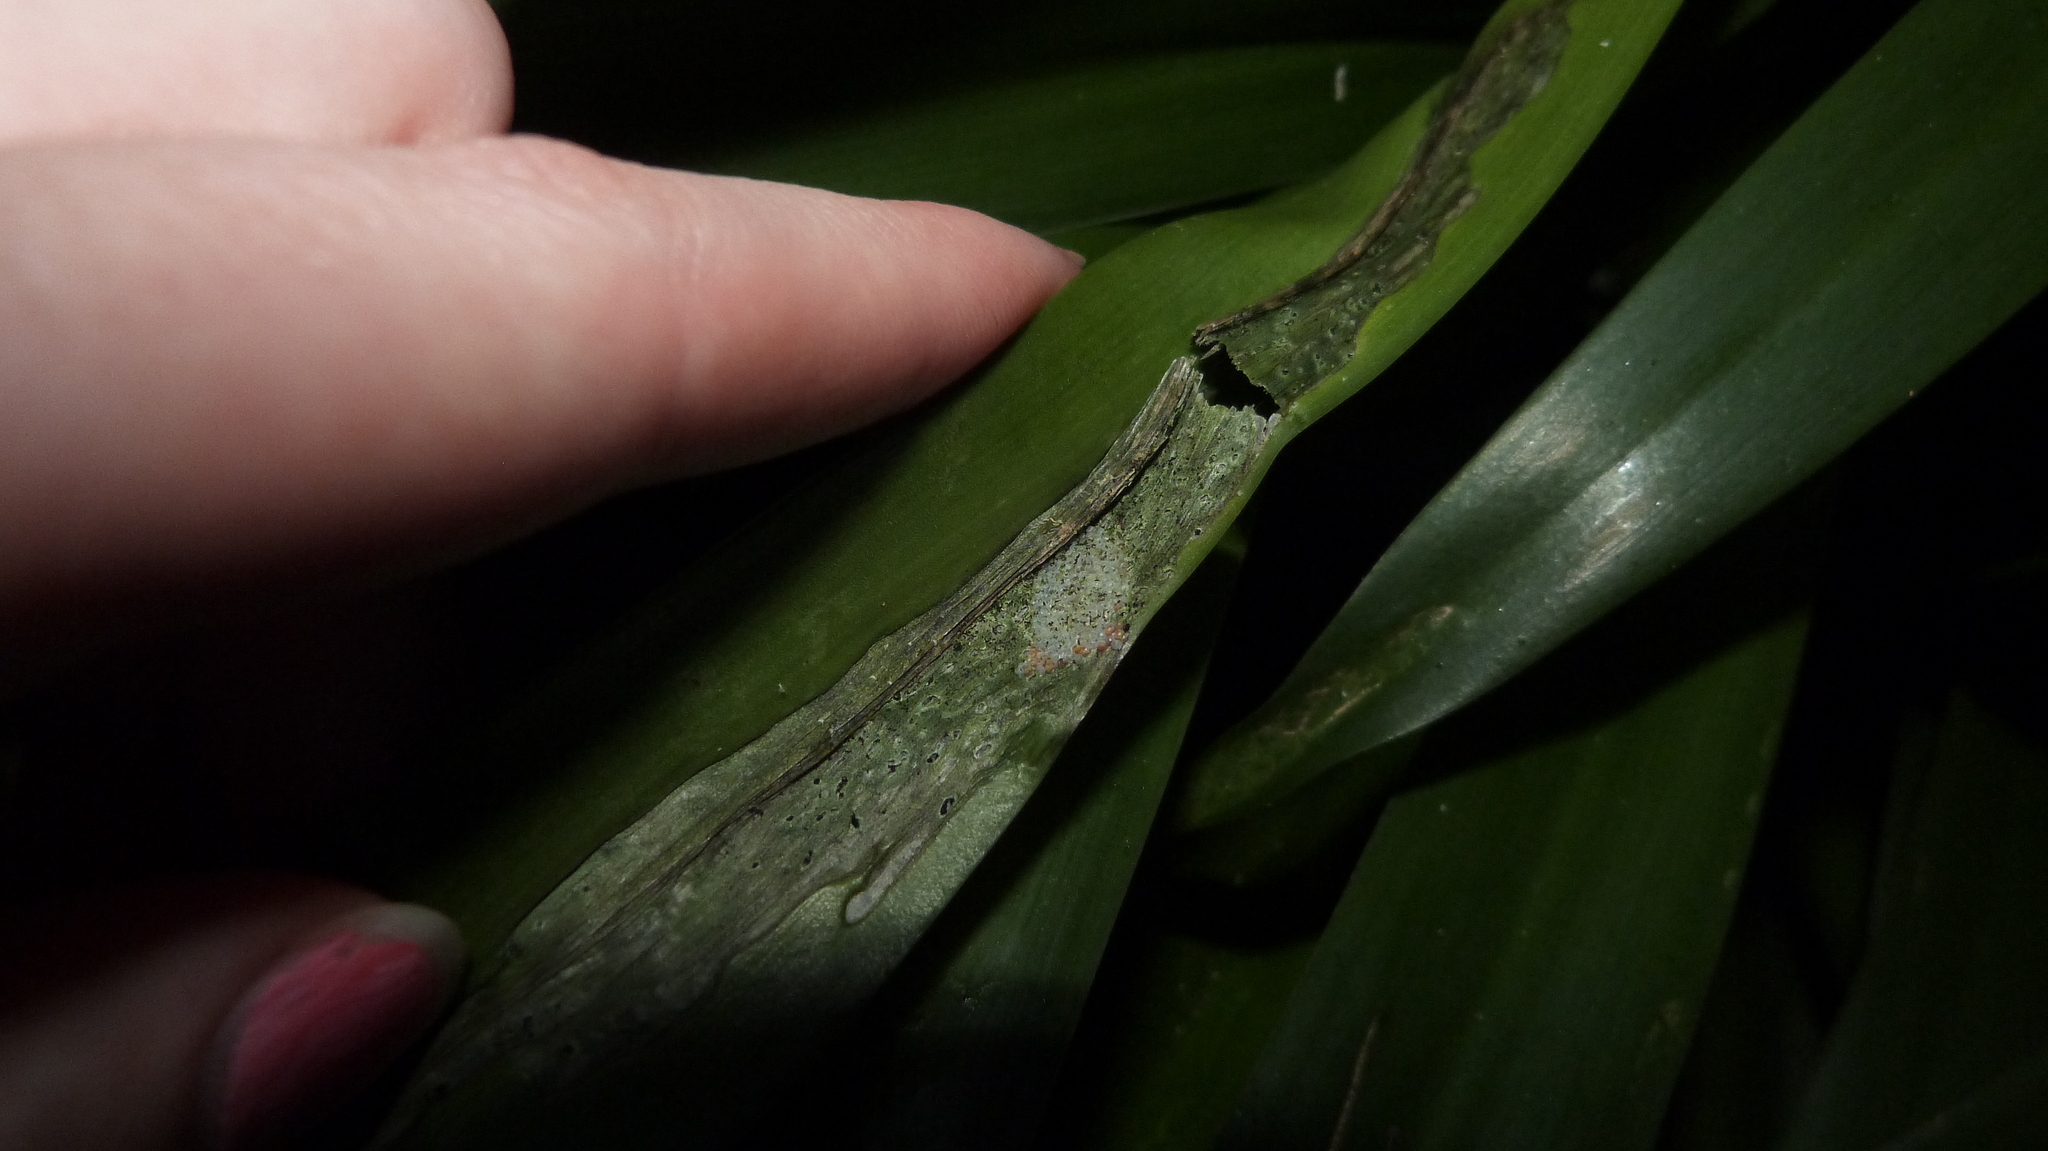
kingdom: Animalia
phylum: Arthropoda
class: Insecta
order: Lepidoptera
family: Noctuidae
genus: Brithys
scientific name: Brithys crini
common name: Kew arches
